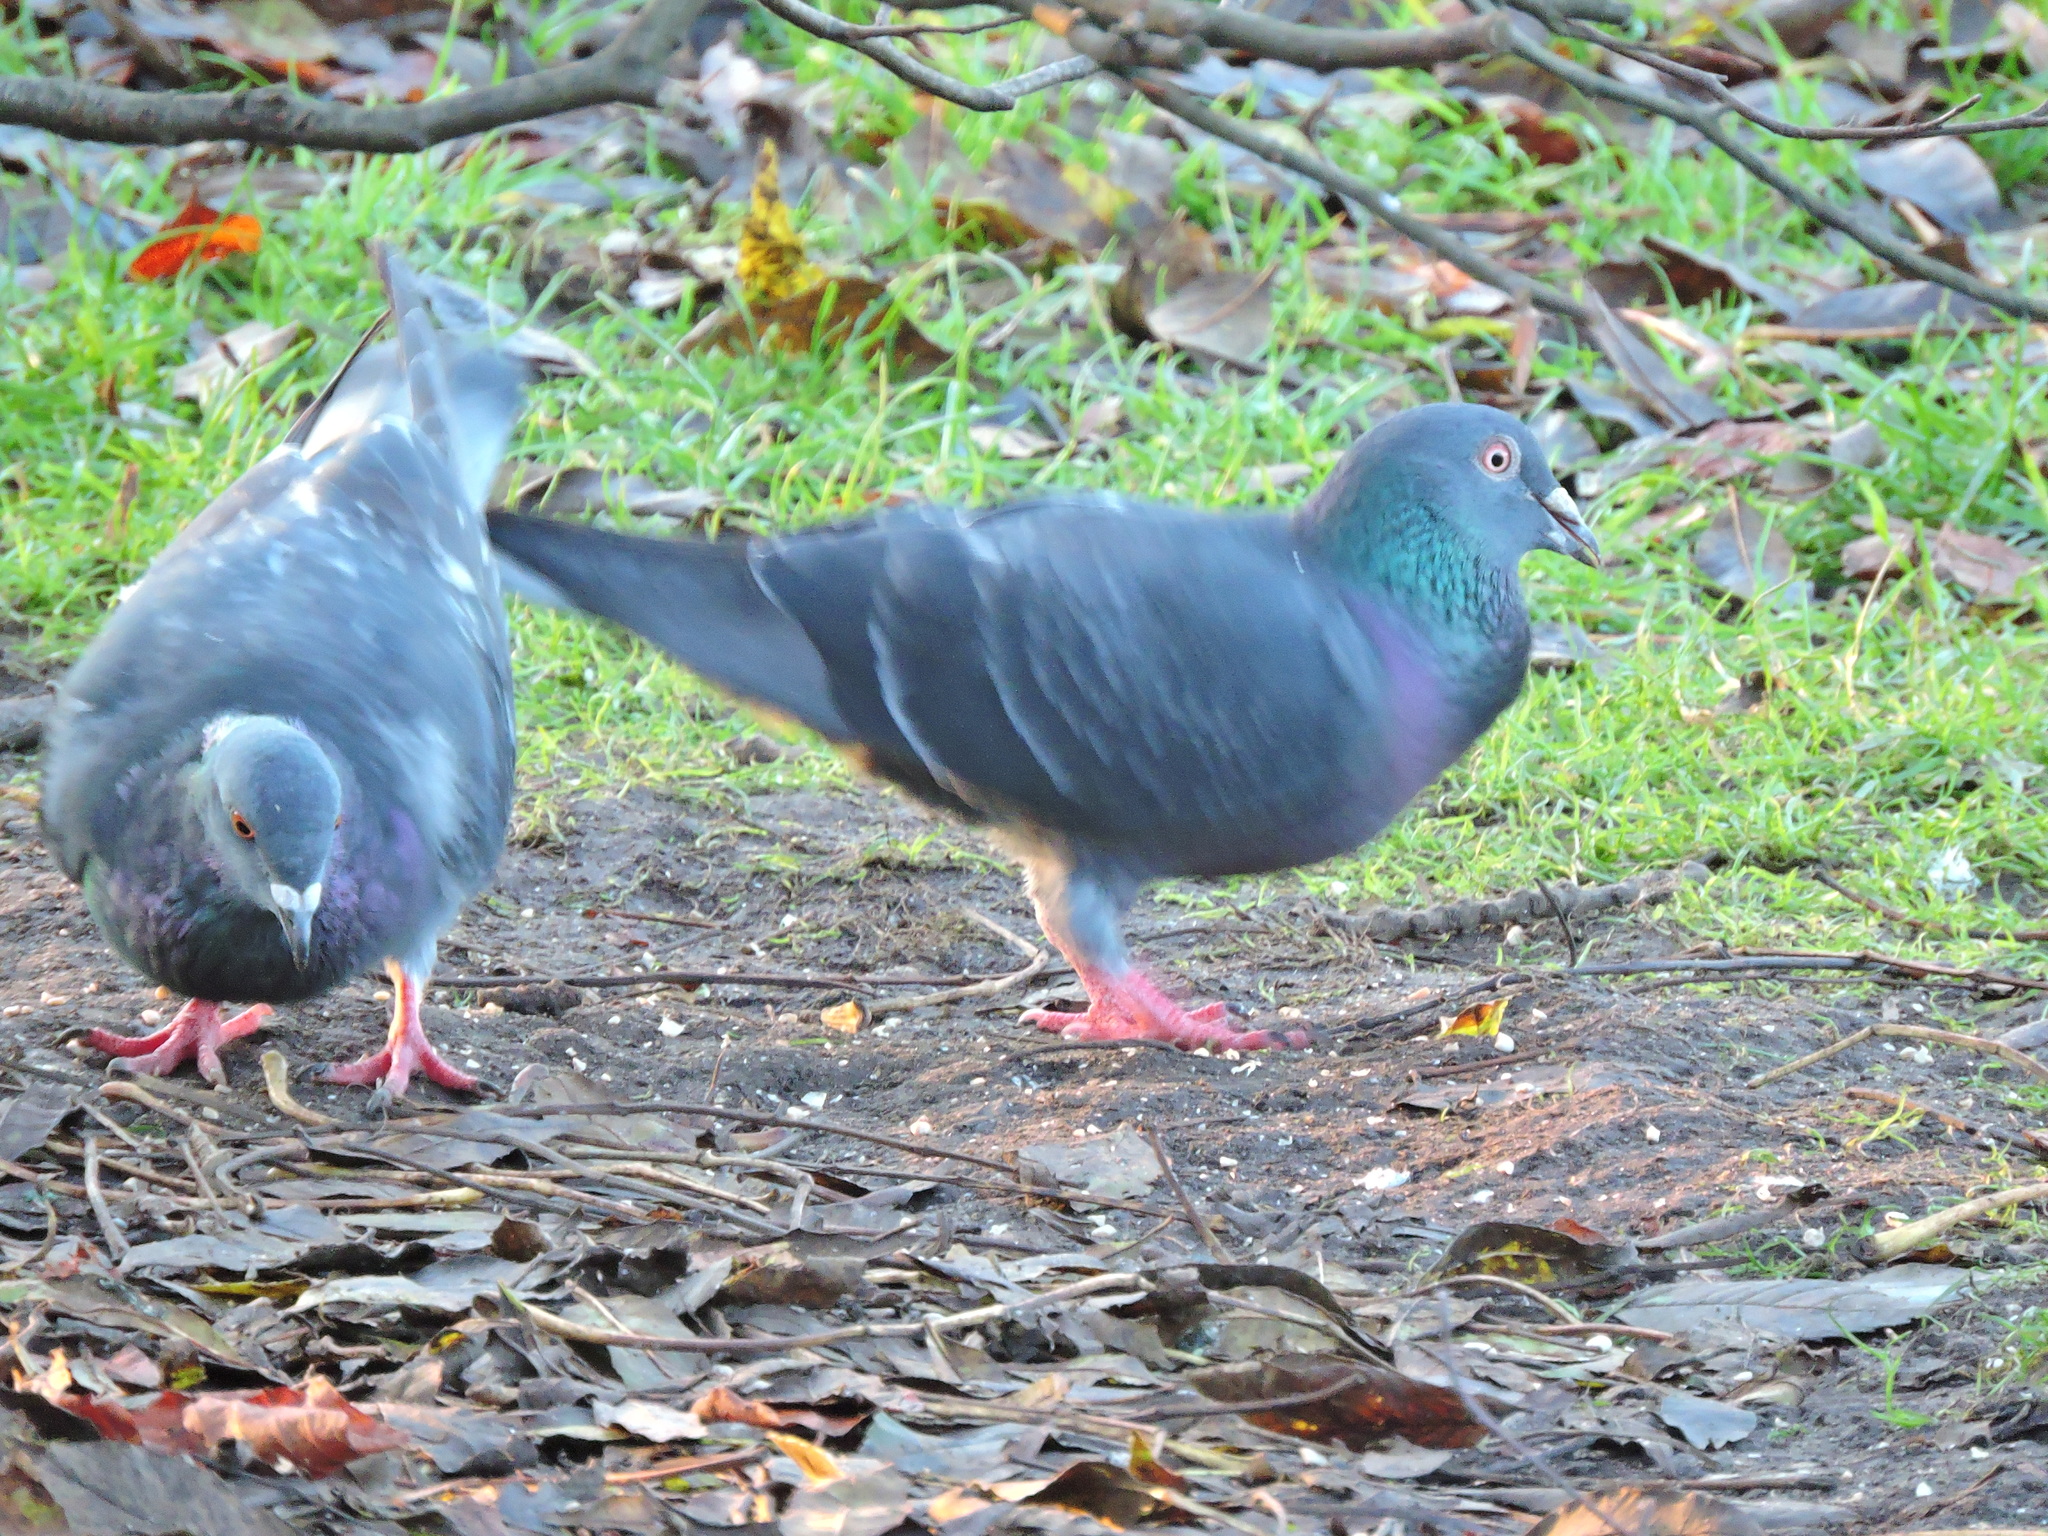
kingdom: Animalia
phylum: Chordata
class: Aves
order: Columbiformes
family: Columbidae
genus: Columba
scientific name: Columba livia
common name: Rock pigeon
